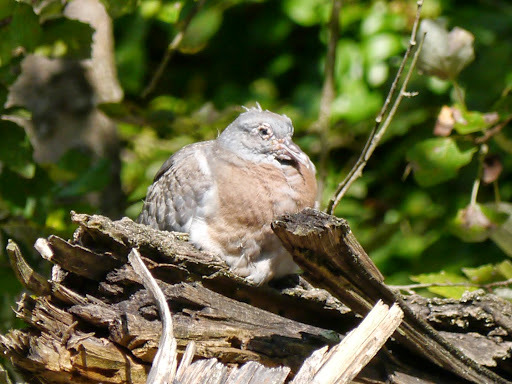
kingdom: Animalia
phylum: Chordata
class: Aves
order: Columbiformes
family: Columbidae
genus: Columba
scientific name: Columba palumbus
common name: Common wood pigeon
